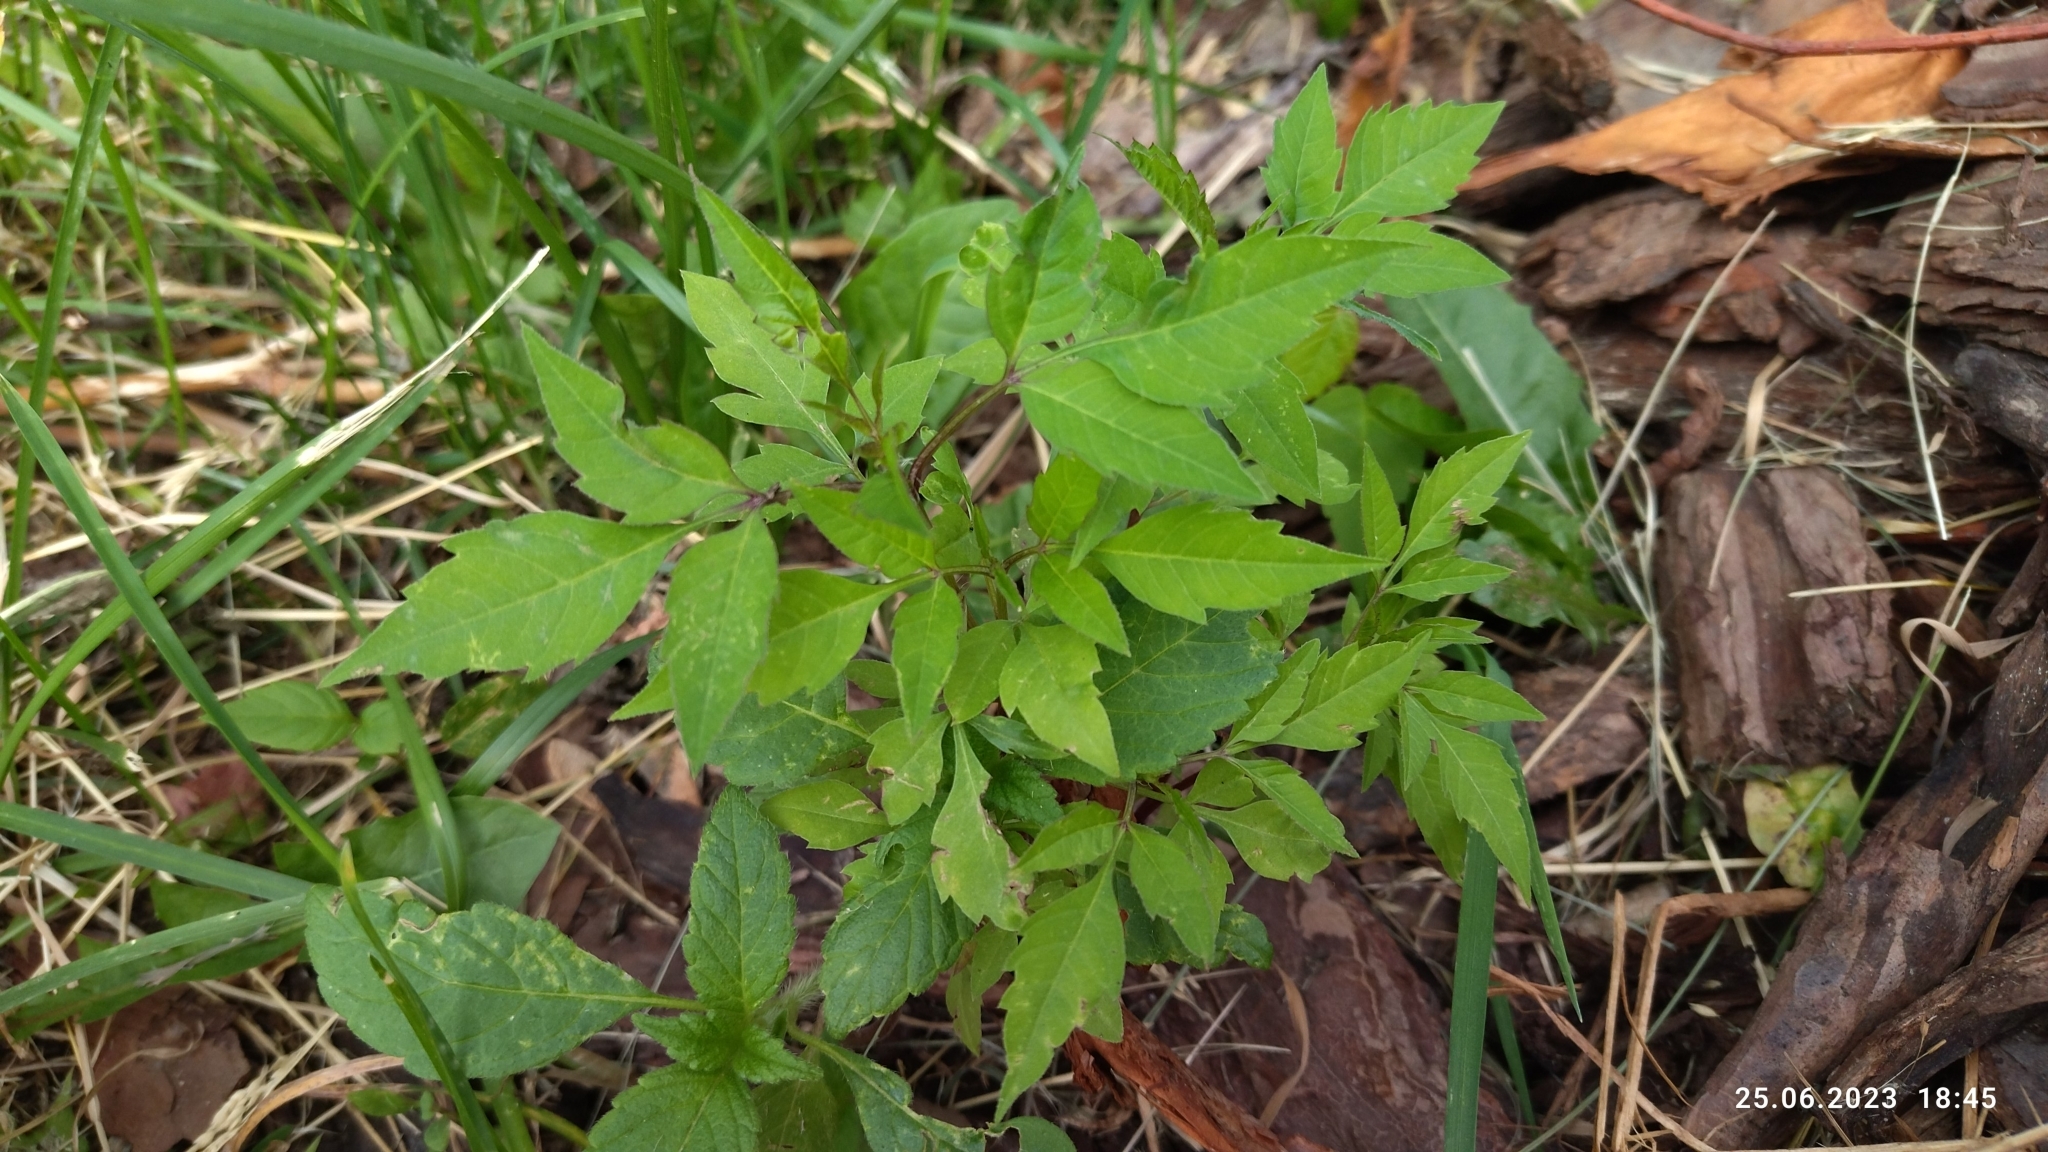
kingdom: Plantae
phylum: Tracheophyta
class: Magnoliopsida
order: Asterales
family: Asteraceae
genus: Bidens
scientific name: Bidens frondosa
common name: Beggarticks
